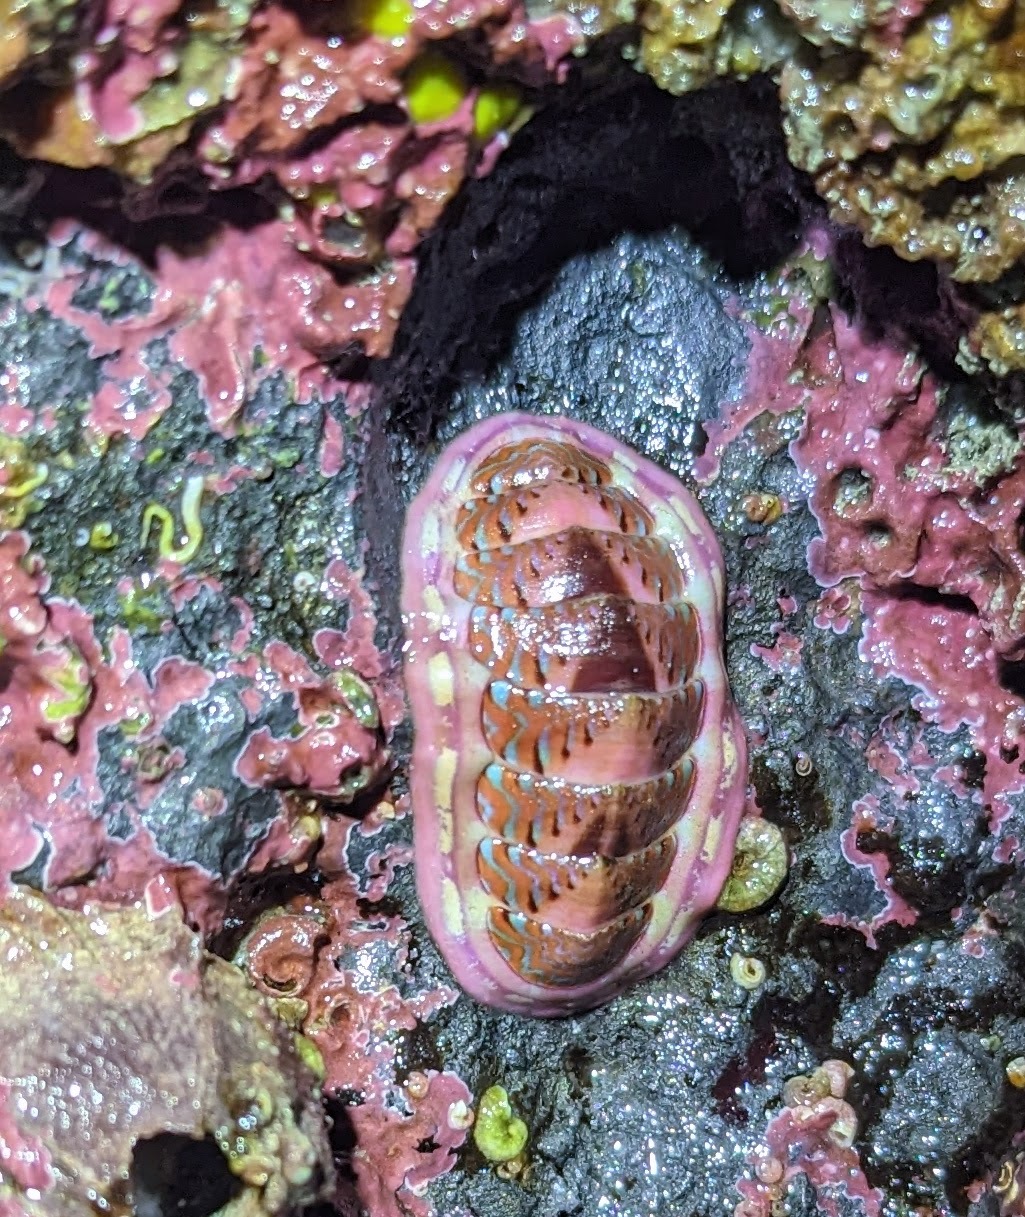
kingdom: Animalia
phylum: Mollusca
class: Polyplacophora
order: Chitonida
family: Tonicellidae
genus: Tonicella
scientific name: Tonicella undocaerulea
